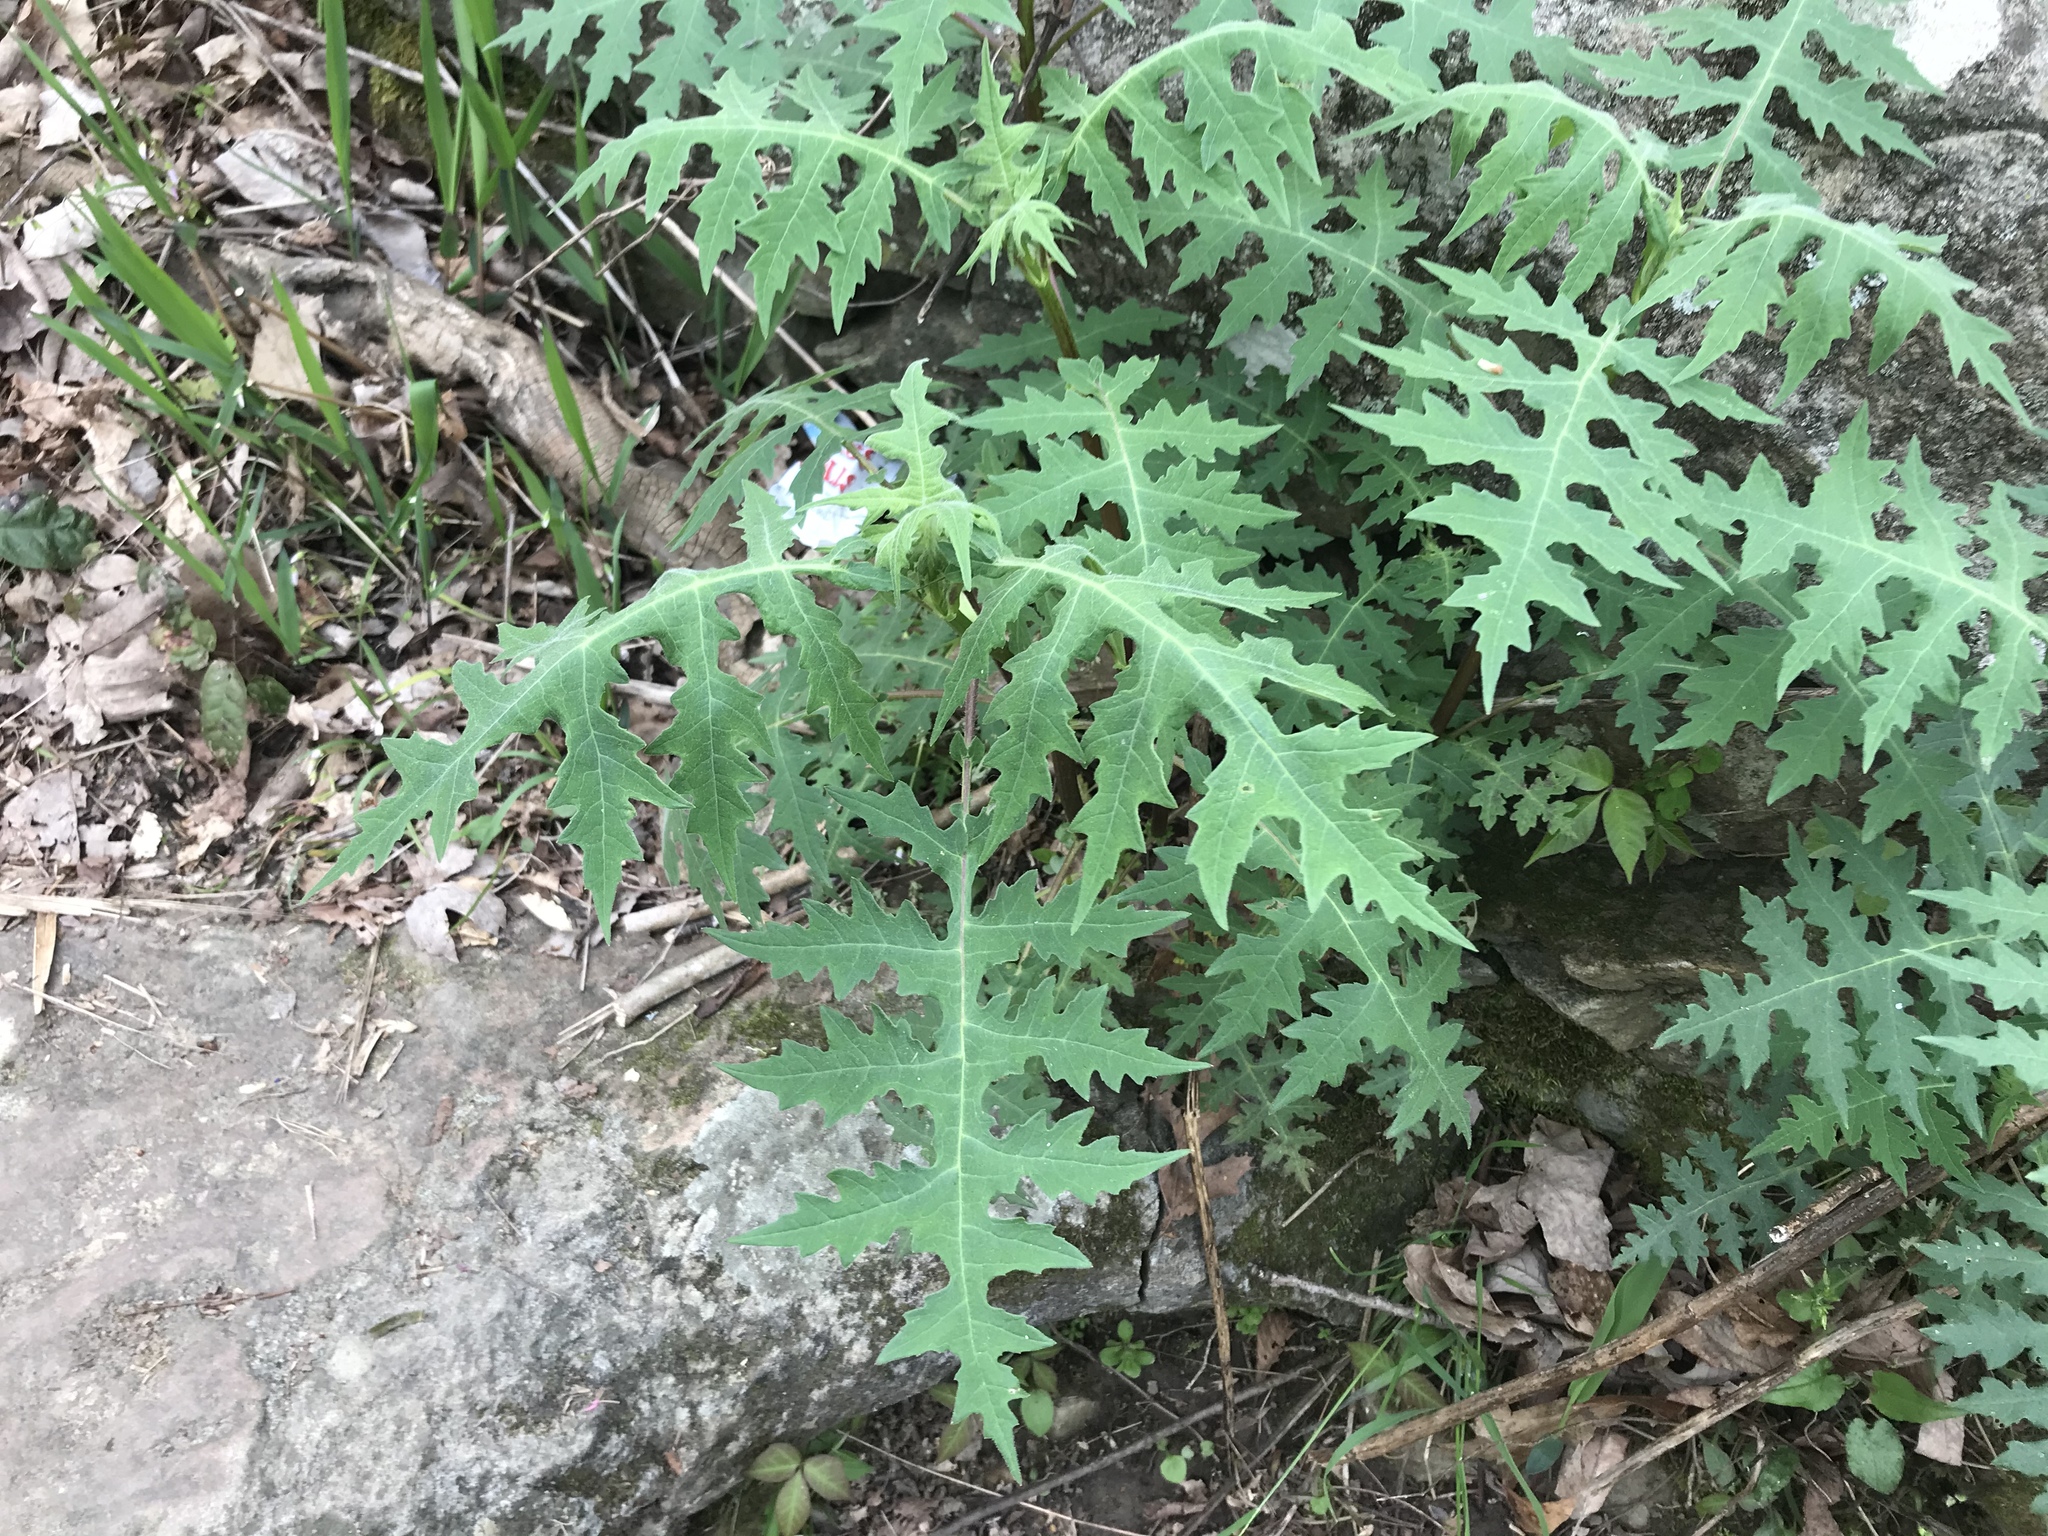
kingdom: Plantae
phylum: Tracheophyta
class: Magnoliopsida
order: Asterales
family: Asteraceae
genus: Polymnia
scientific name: Polymnia canadensis
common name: Pale-flowered leafcup
